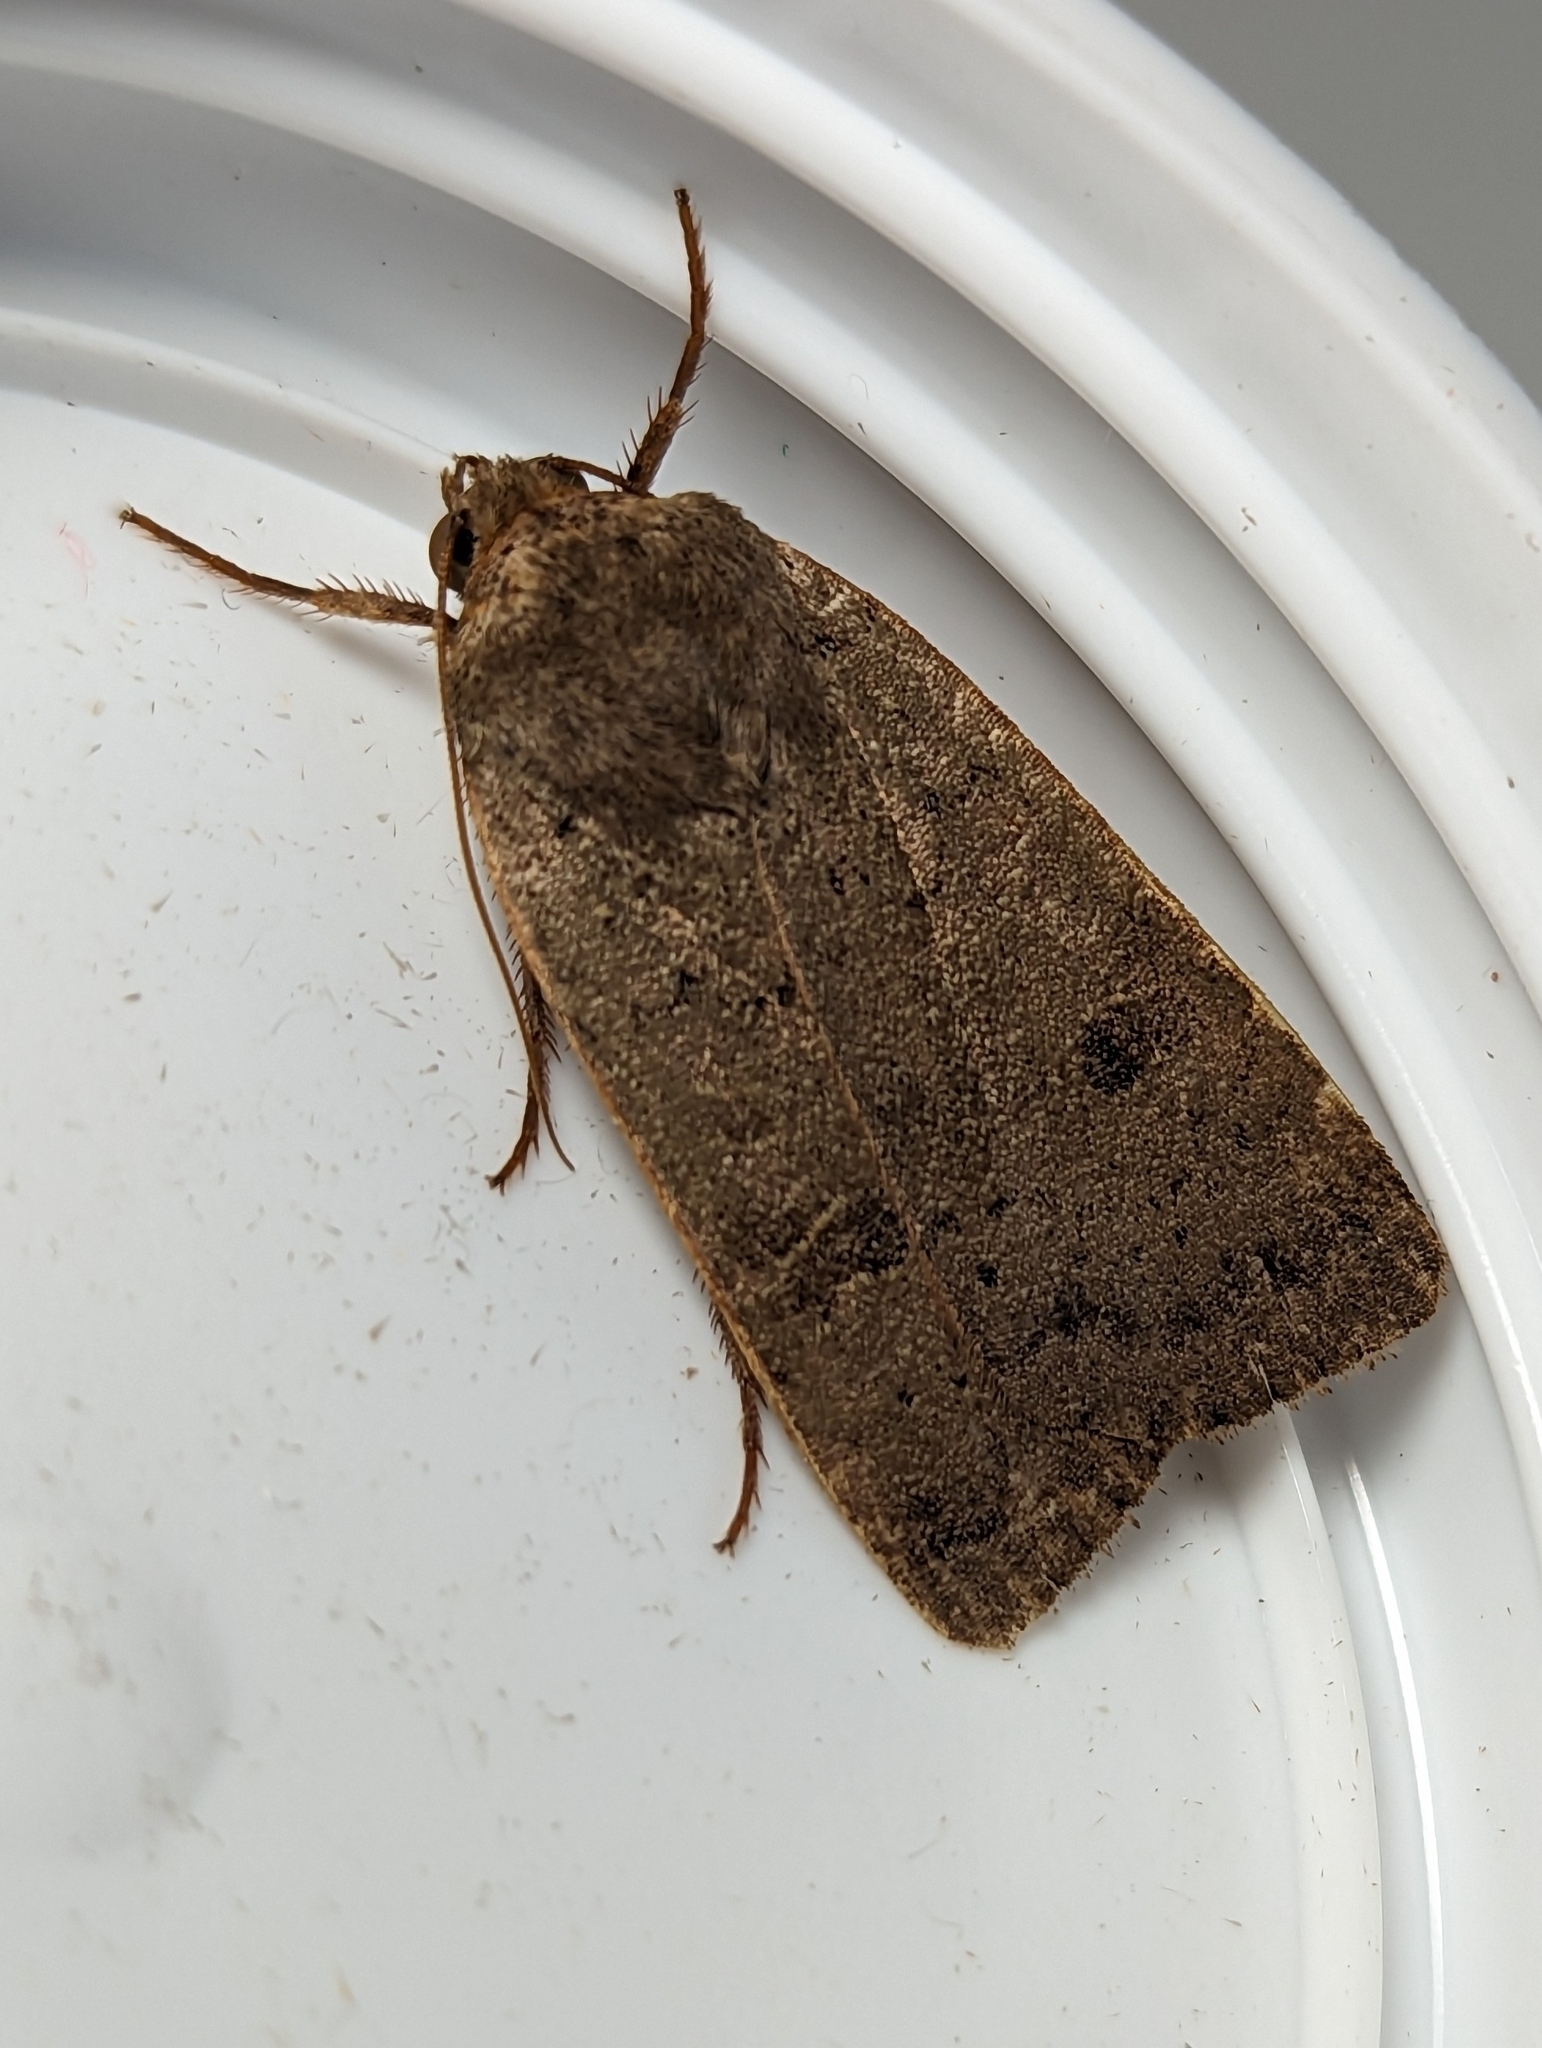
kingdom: Animalia
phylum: Arthropoda
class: Insecta
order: Lepidoptera
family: Noctuidae
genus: Noctua
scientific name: Noctua comes
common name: Lesser yellow underwing
